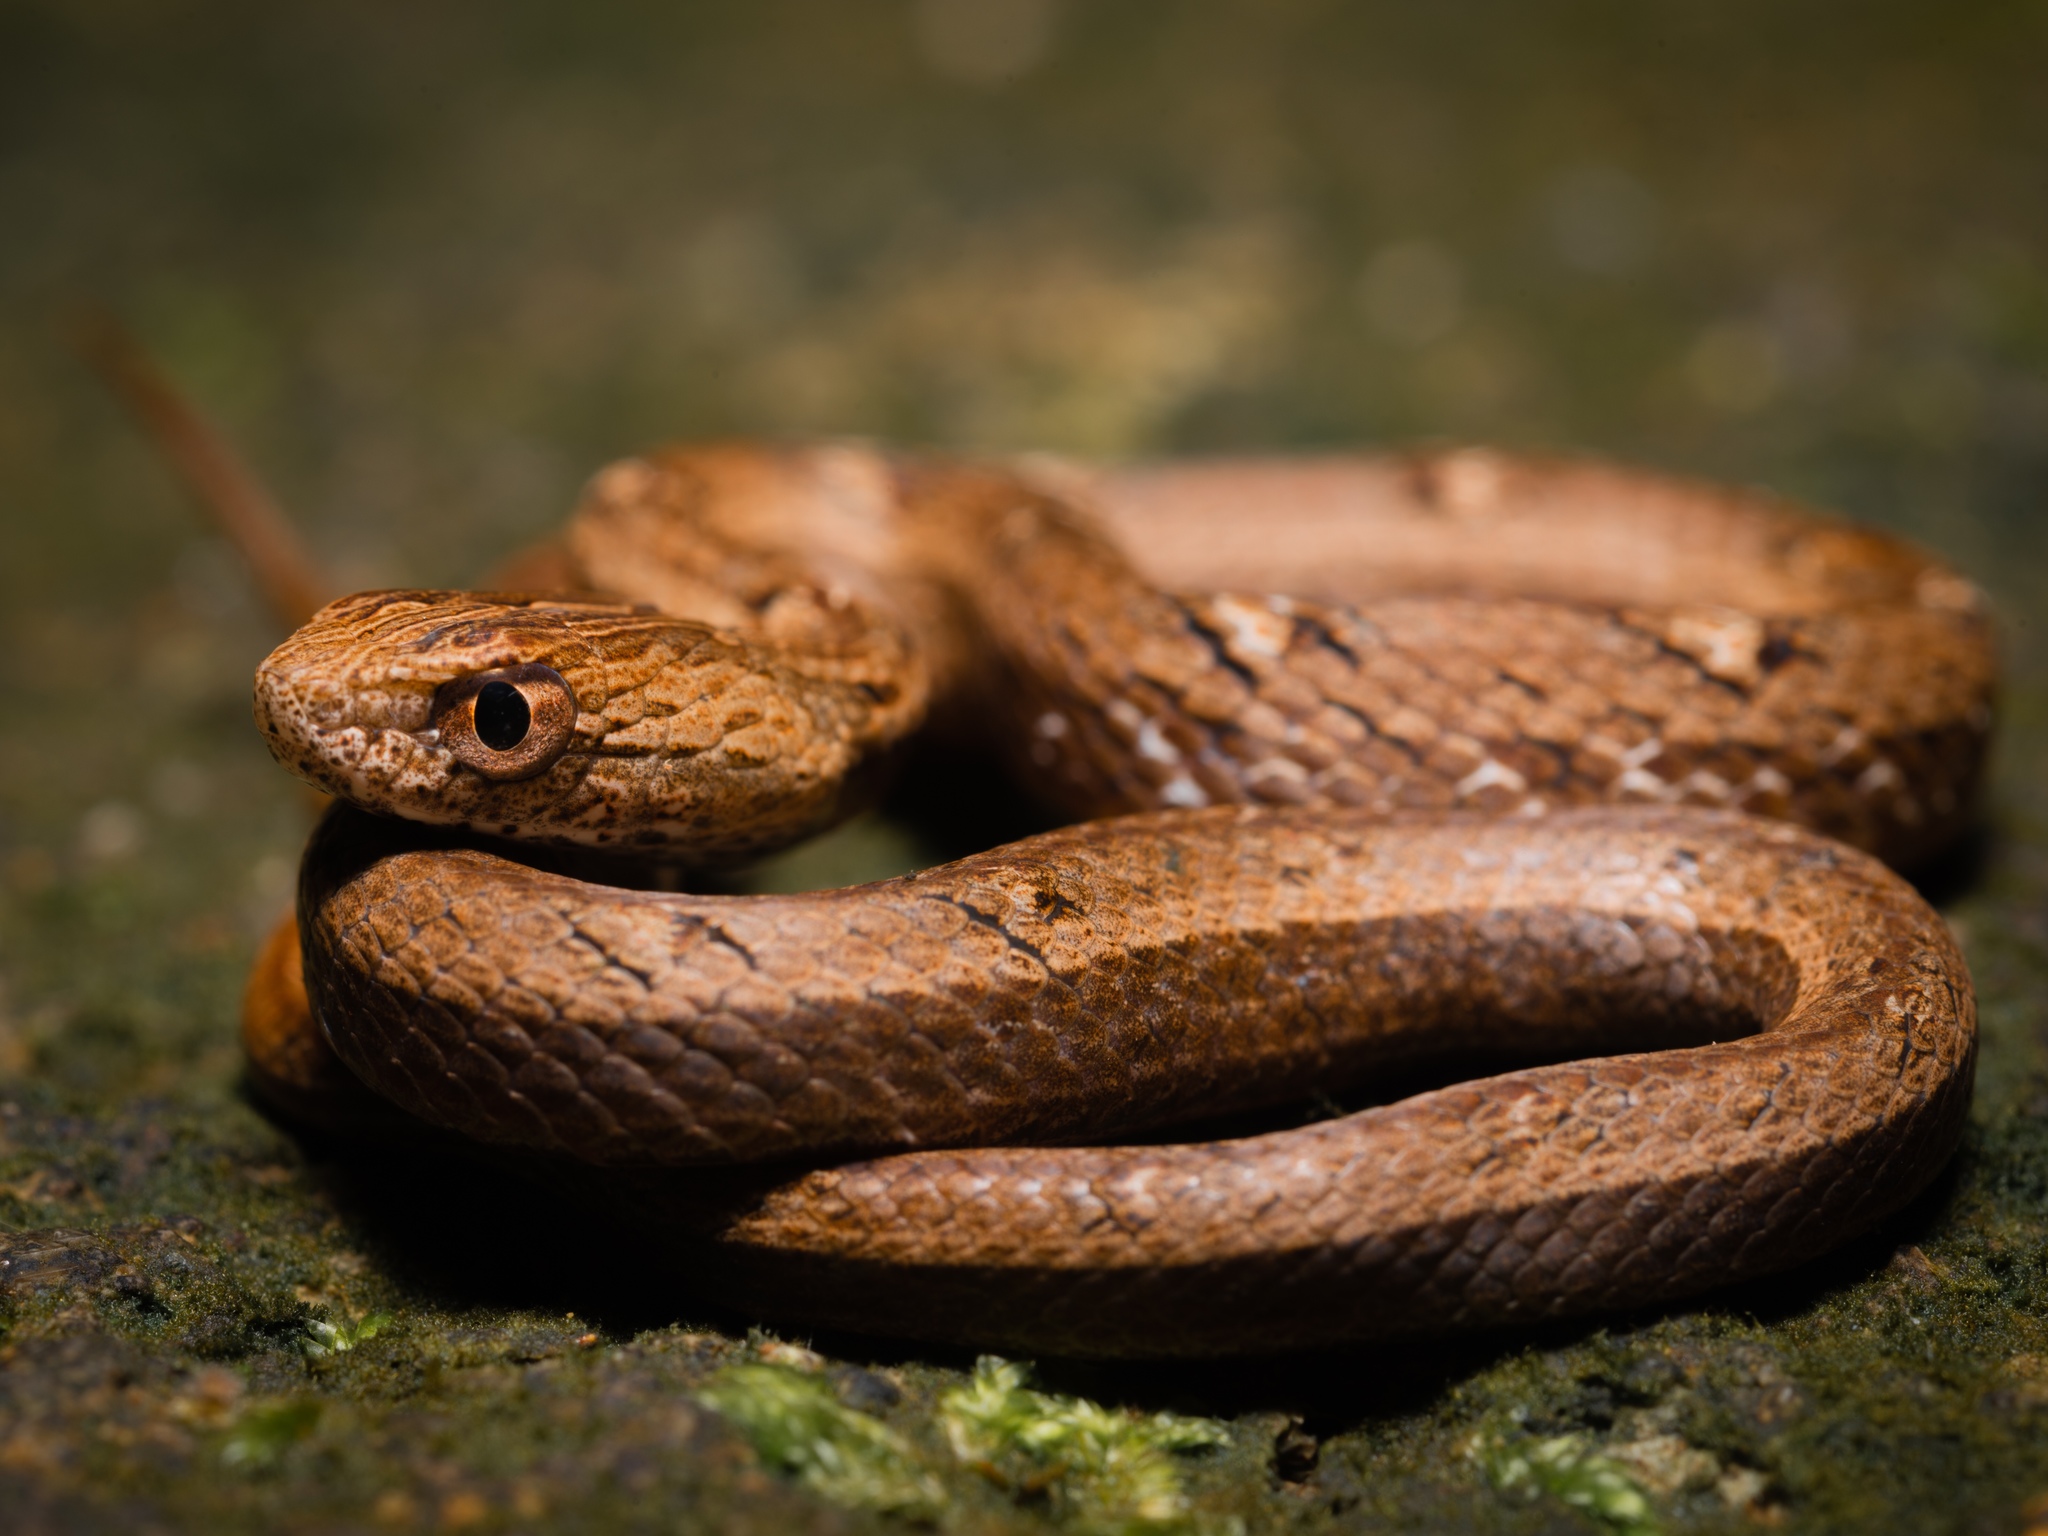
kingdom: Animalia
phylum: Chordata
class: Squamata
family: Pseudaspididae
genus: Psammodynastes
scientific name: Psammodynastes pulverulentus
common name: Common mock viper
